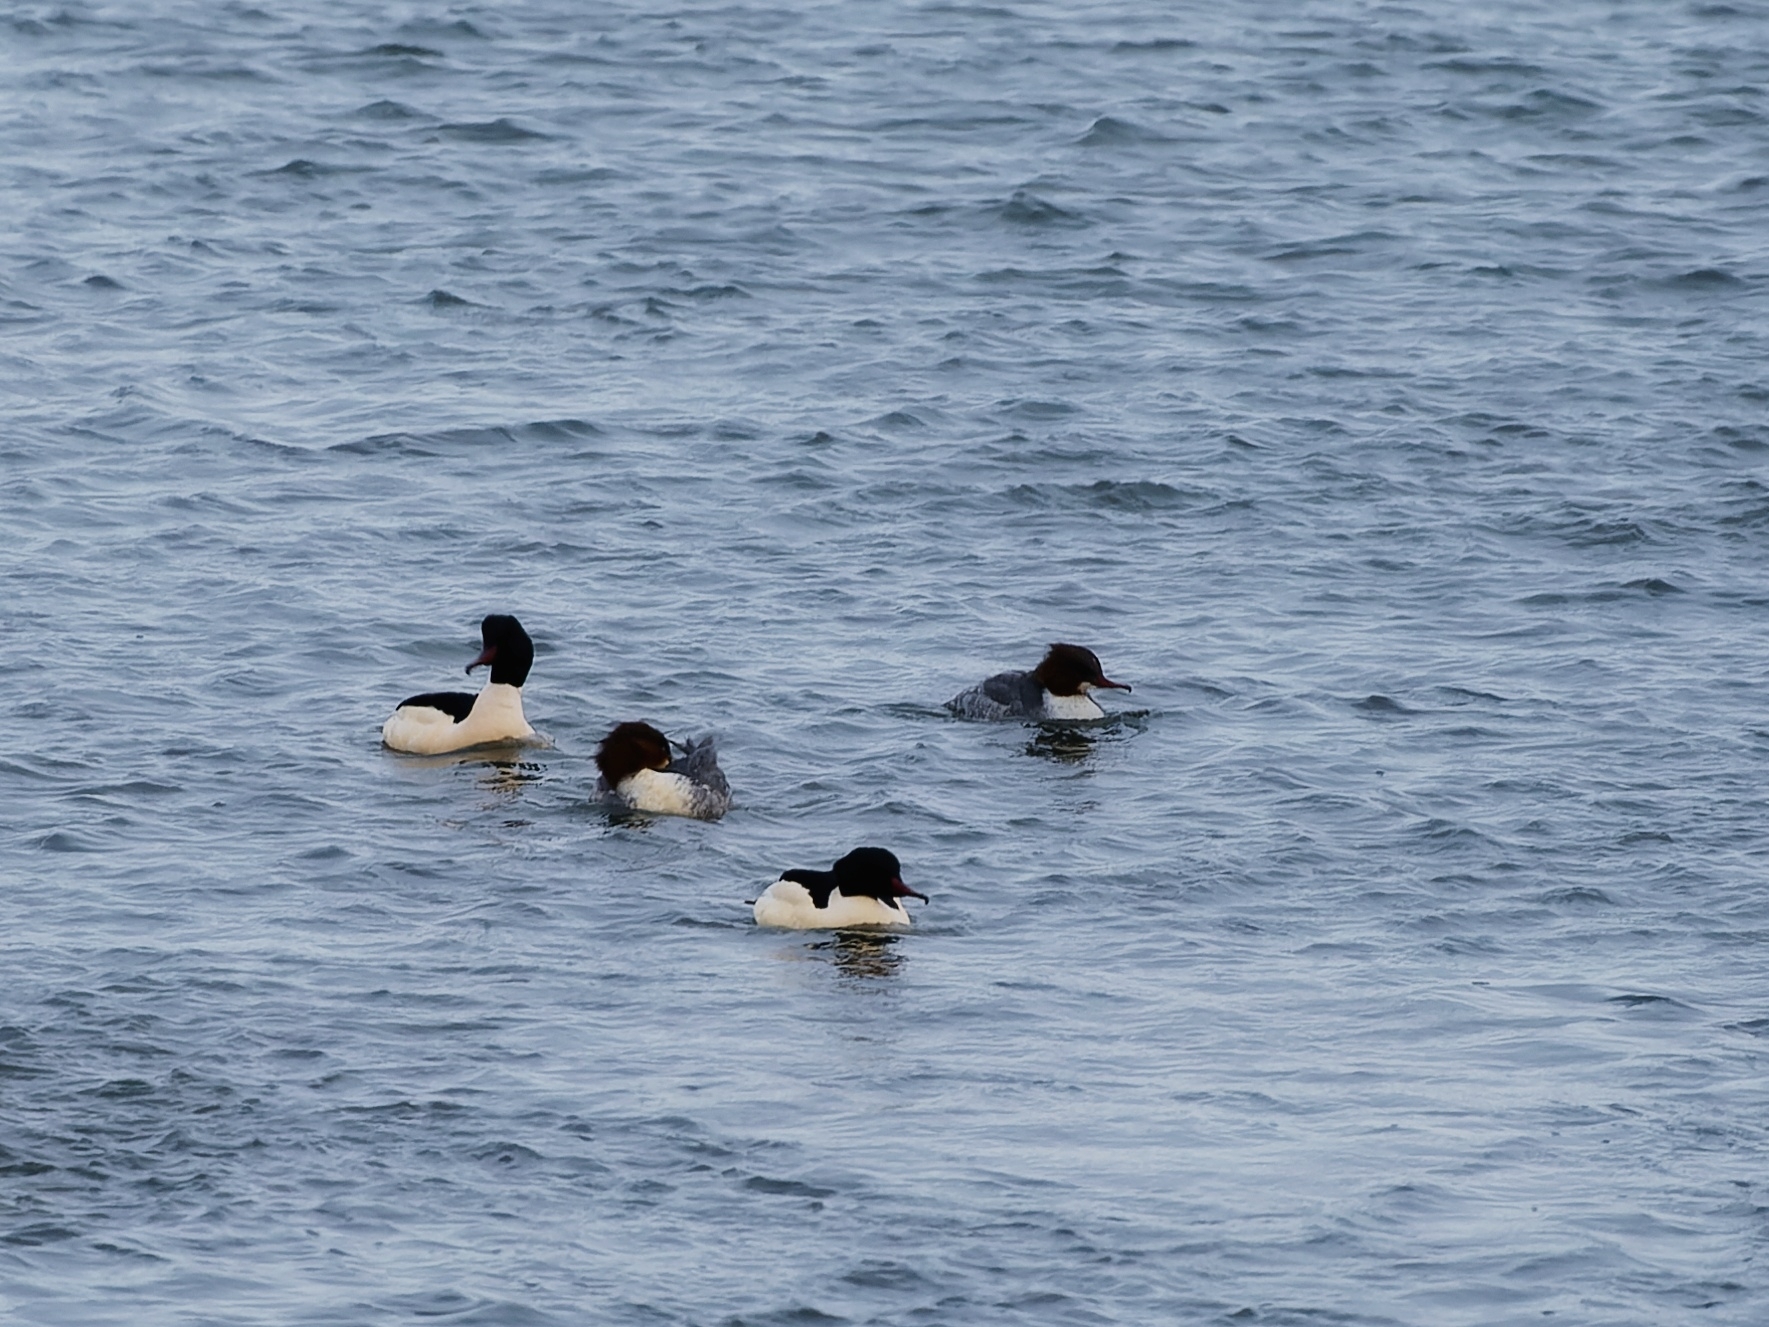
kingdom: Animalia
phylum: Chordata
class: Aves
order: Anseriformes
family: Anatidae
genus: Mergus
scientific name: Mergus merganser
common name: Common merganser
